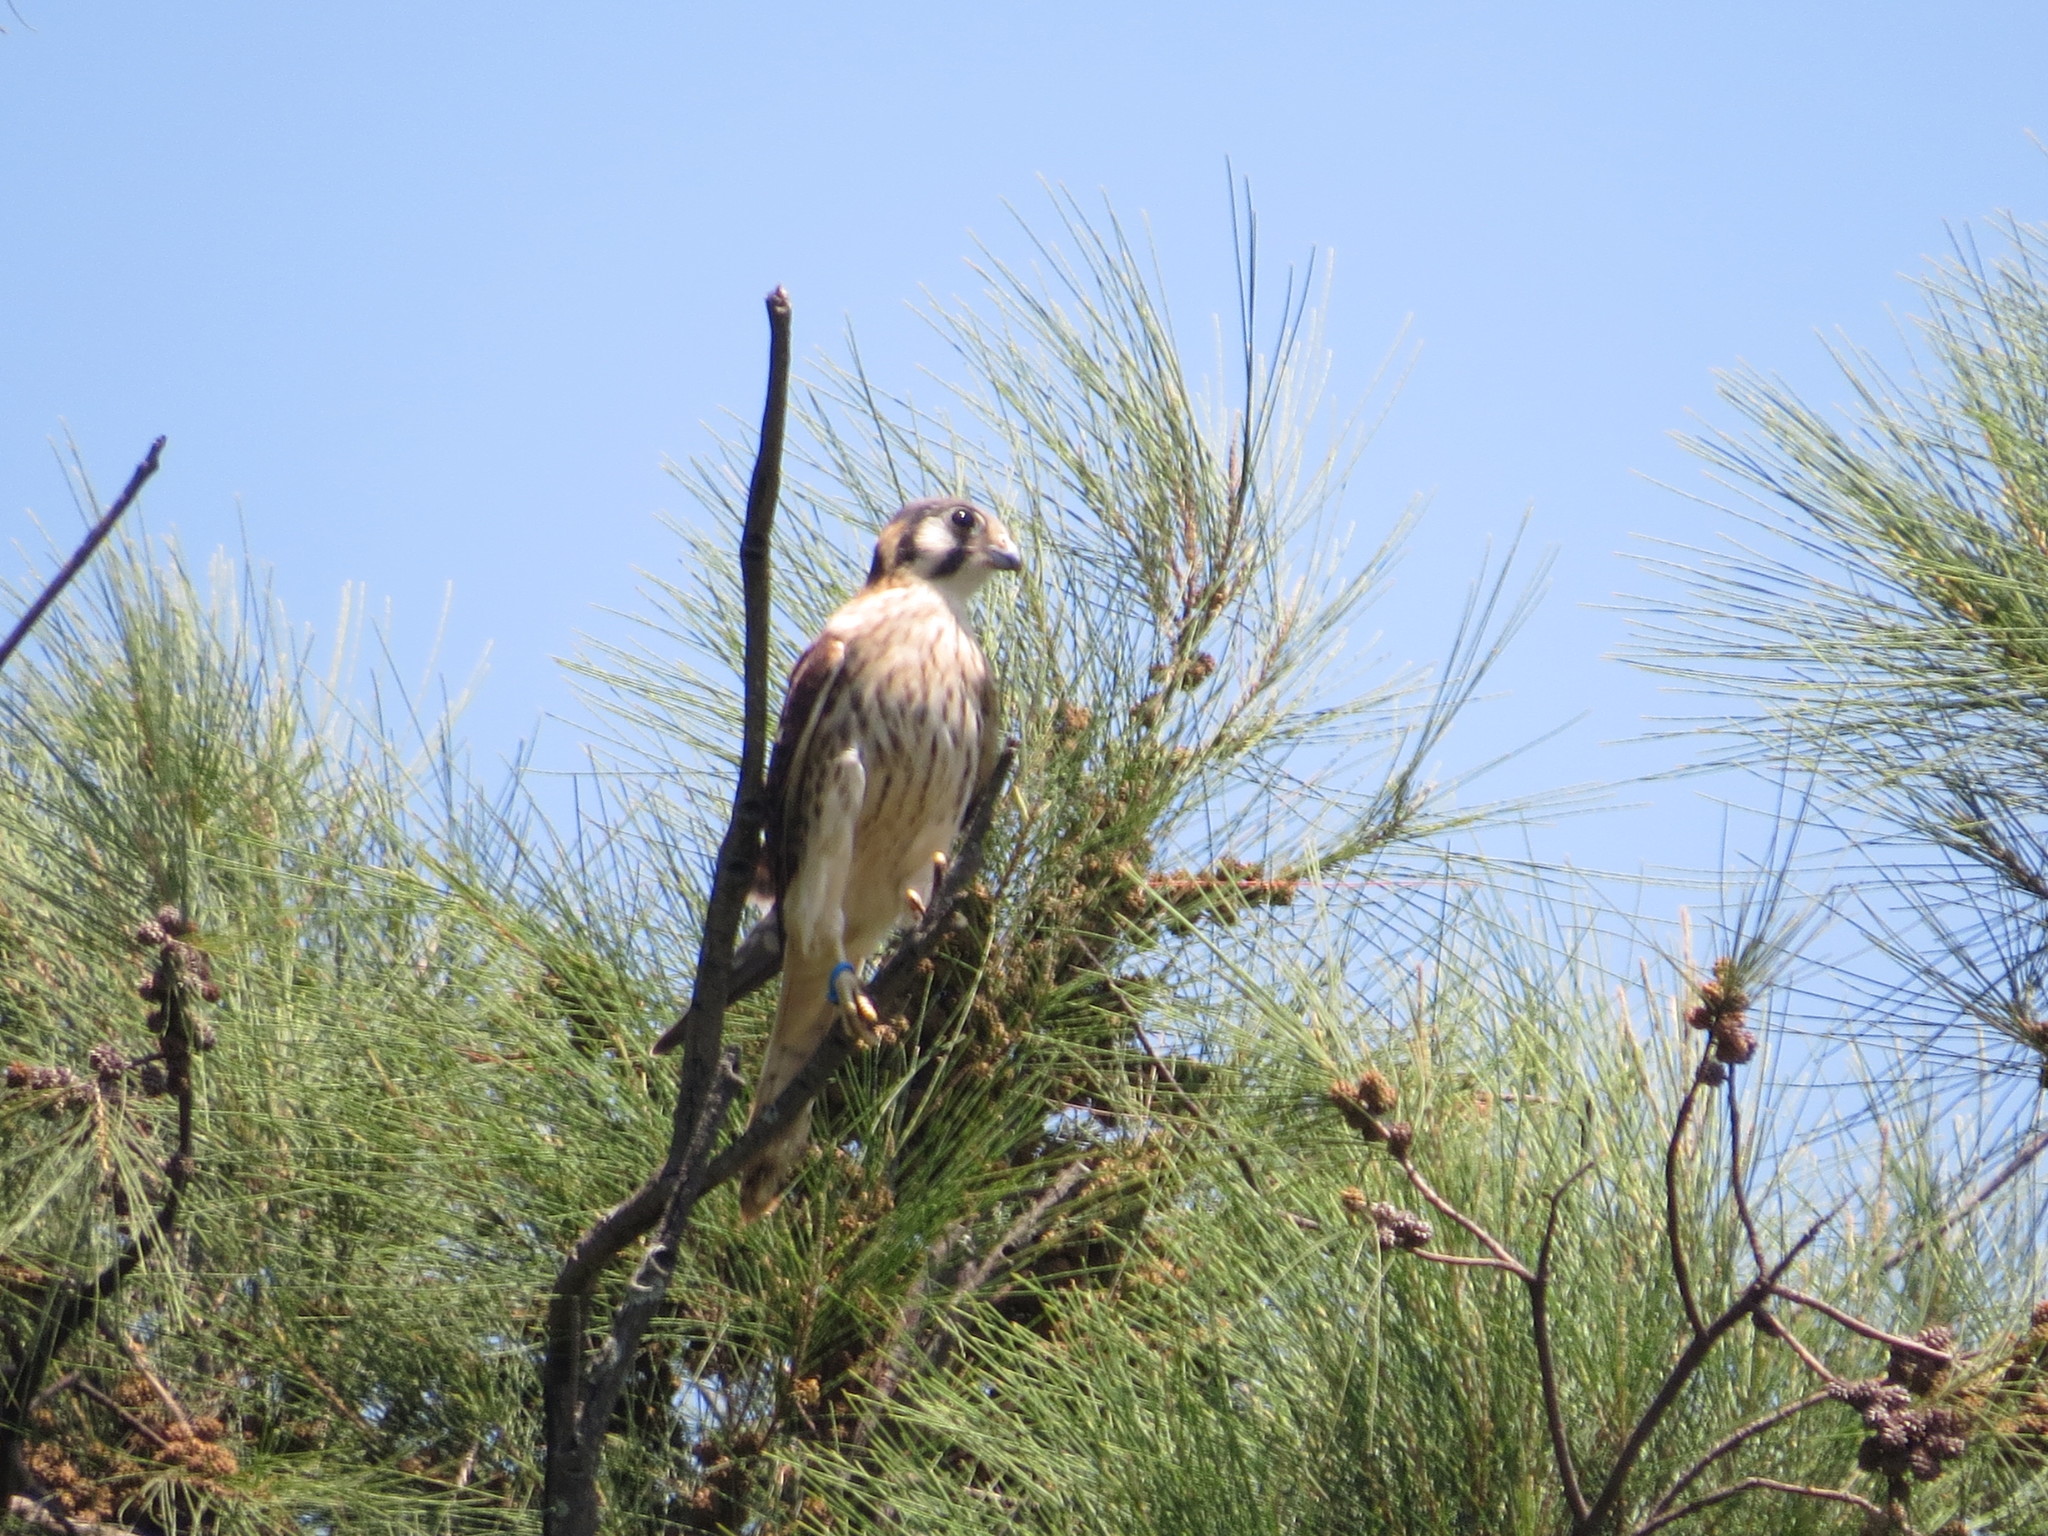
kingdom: Animalia
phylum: Chordata
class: Aves
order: Falconiformes
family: Falconidae
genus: Falco
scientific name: Falco sparverius
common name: American kestrel
